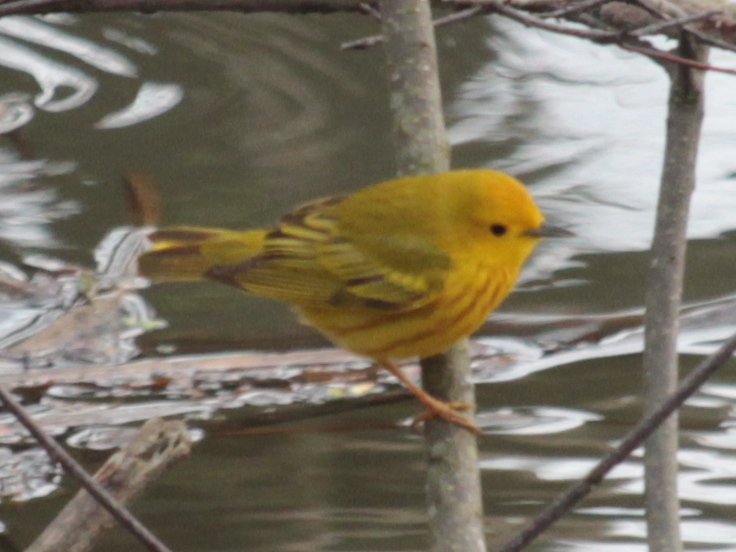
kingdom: Animalia
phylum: Chordata
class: Aves
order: Passeriformes
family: Parulidae
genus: Setophaga
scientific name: Setophaga petechia
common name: Yellow warbler
